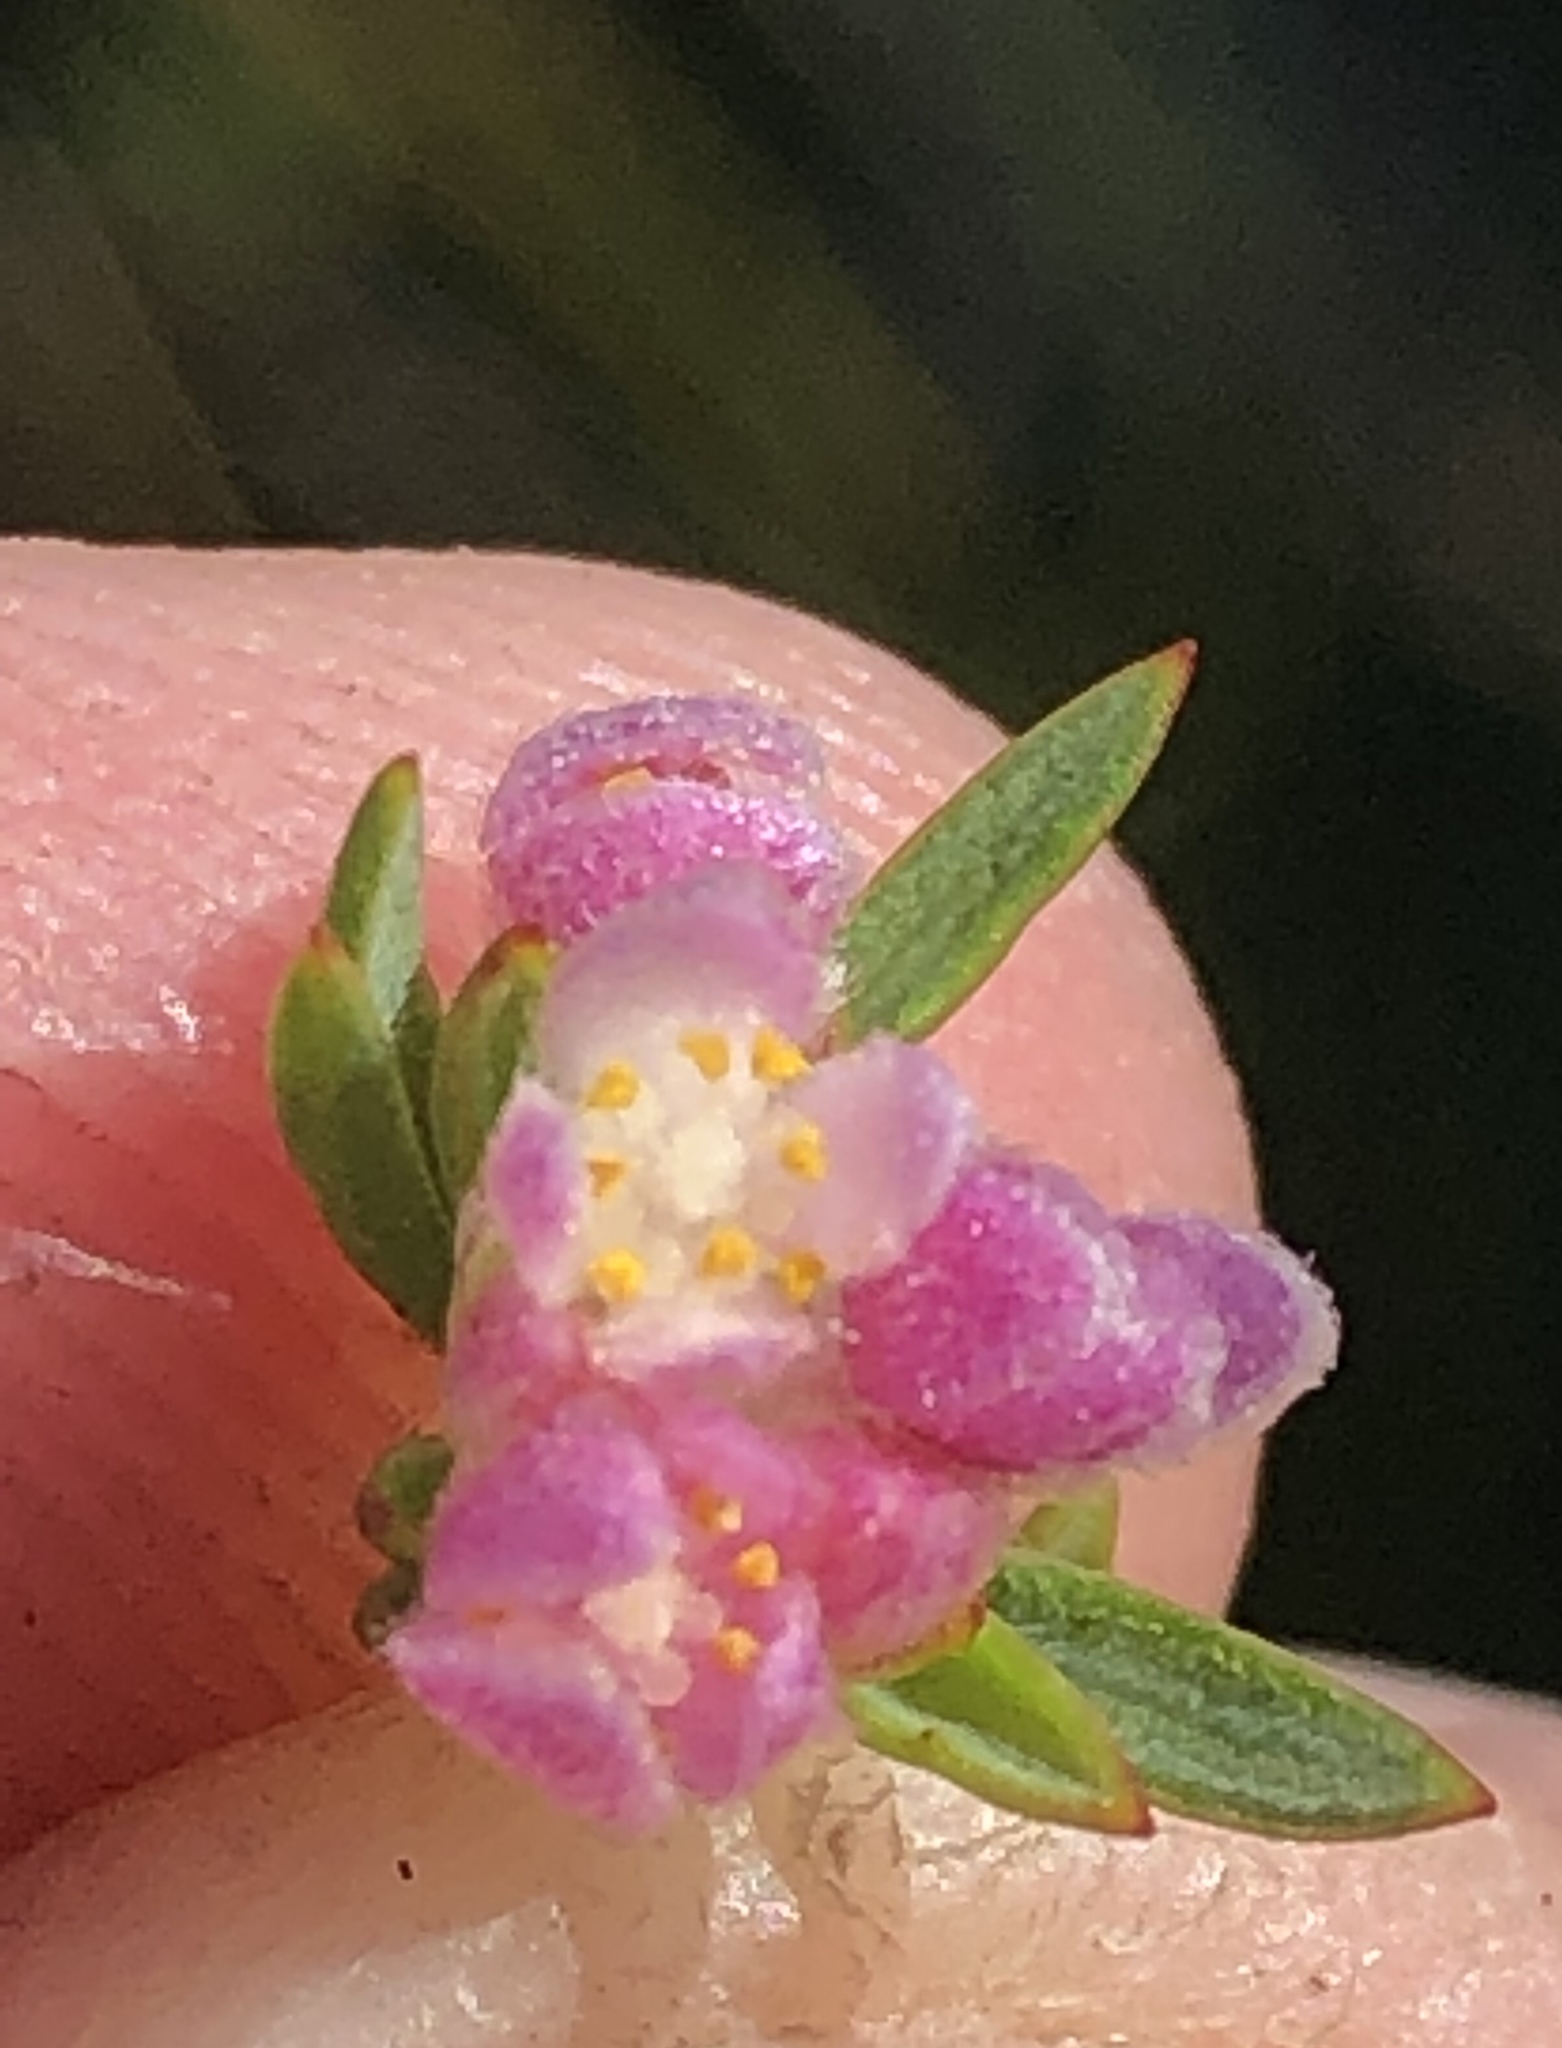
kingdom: Plantae
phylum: Tracheophyta
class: Magnoliopsida
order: Malvales
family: Thymelaeaceae
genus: Lachnaea
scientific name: Lachnaea burchellii
